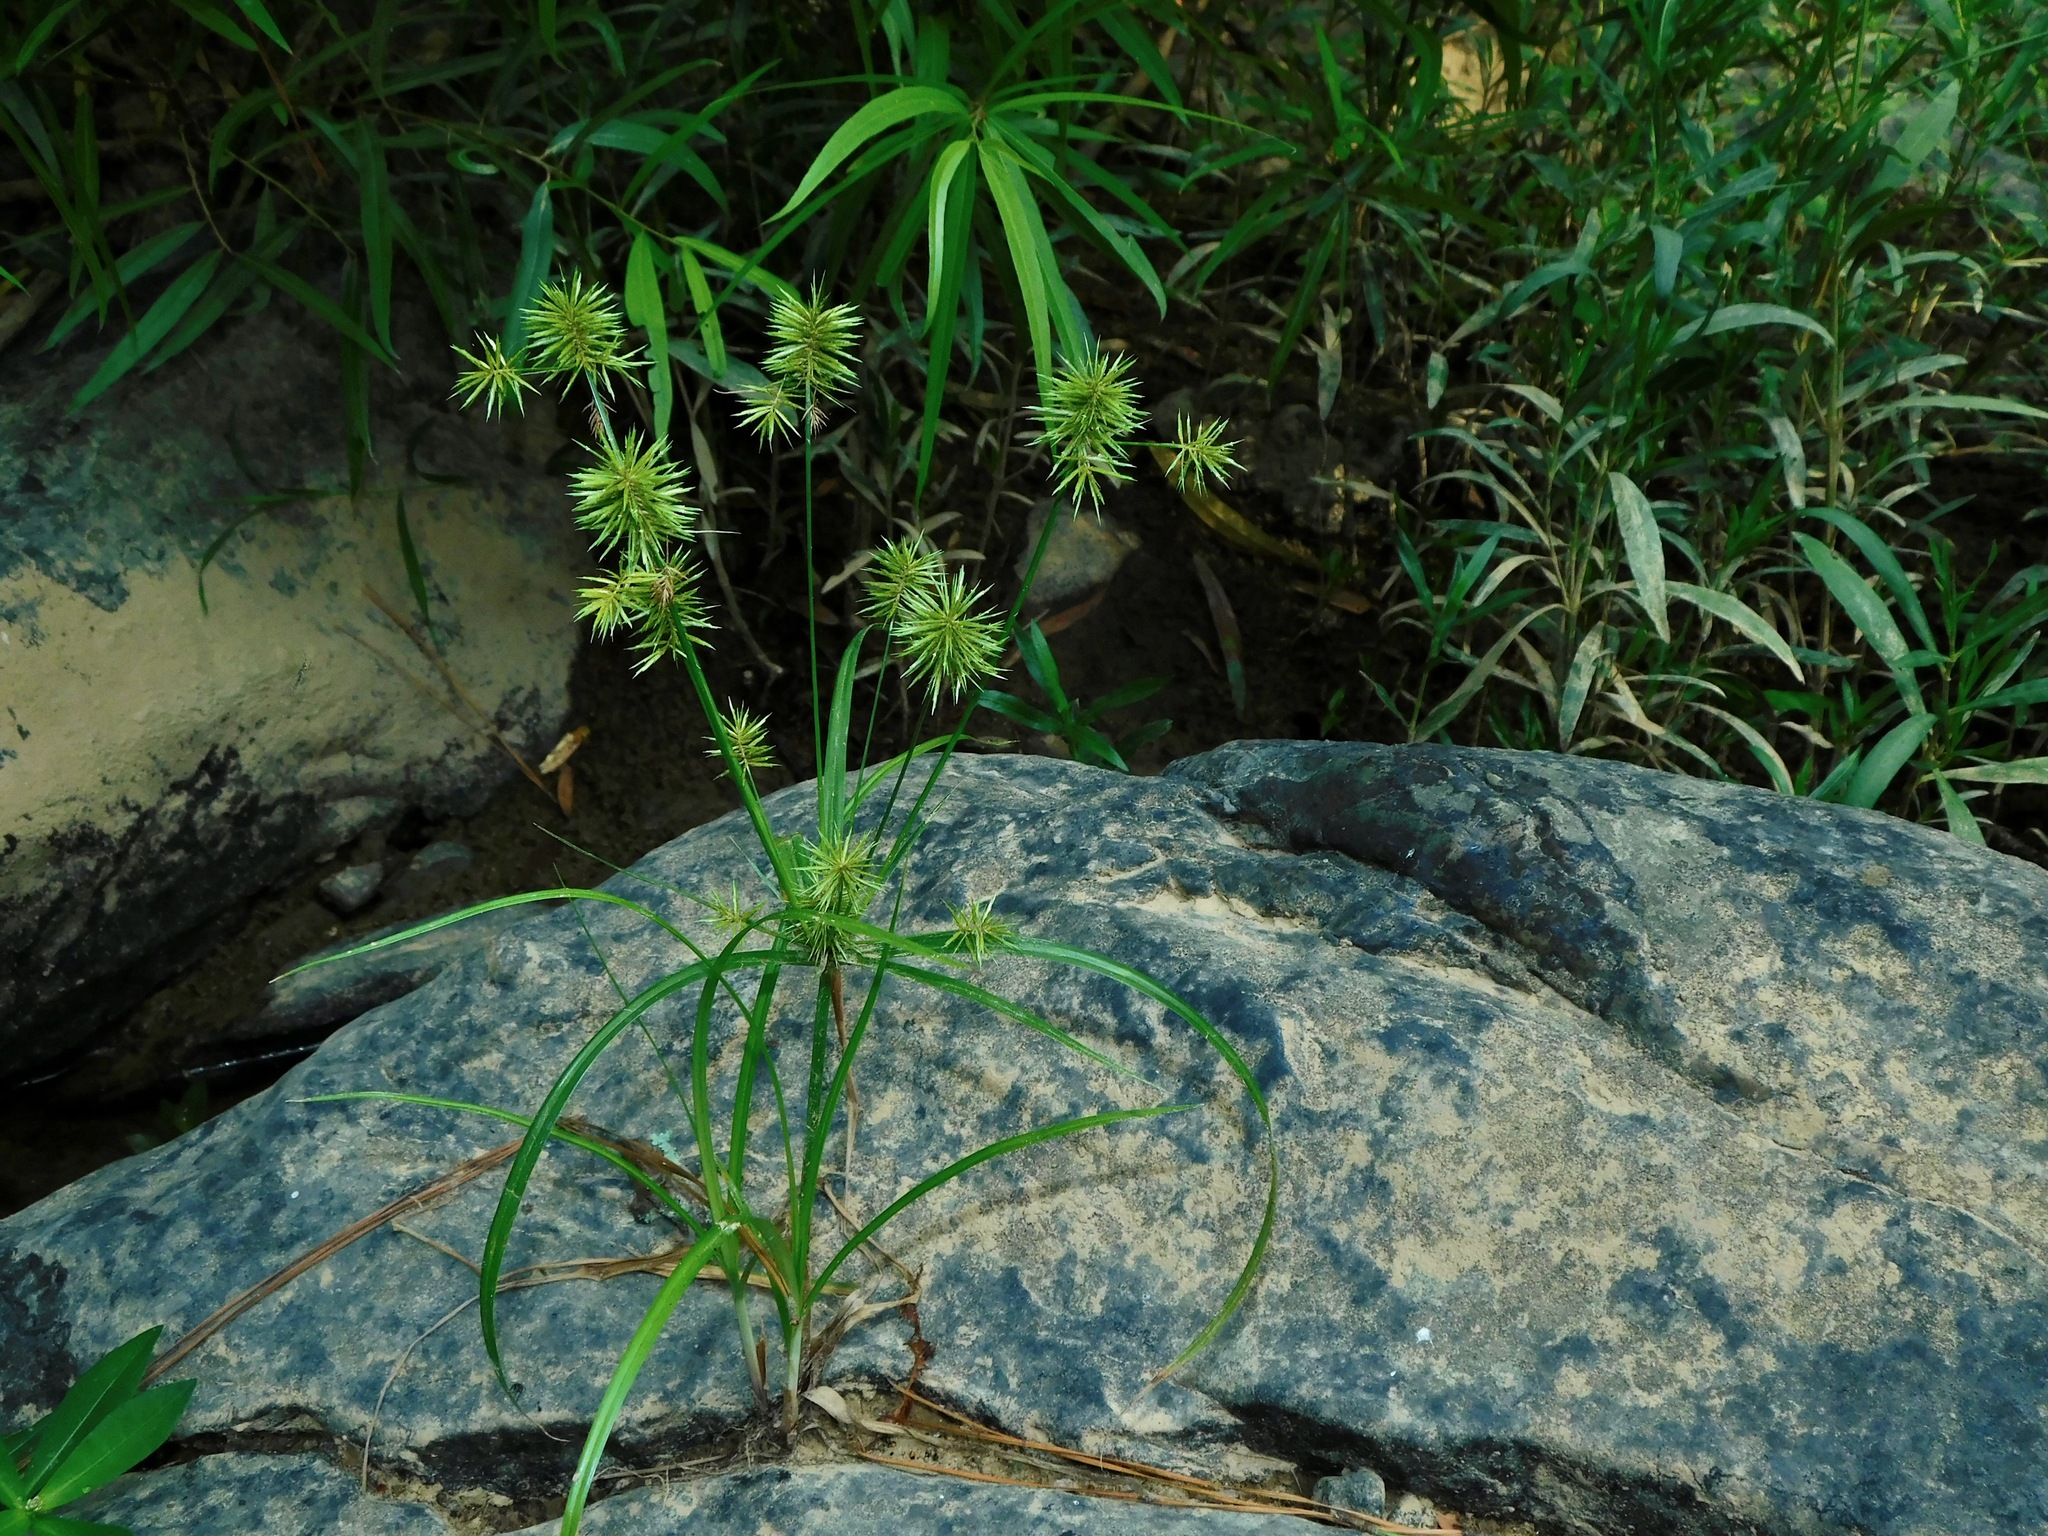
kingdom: Plantae
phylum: Tracheophyta
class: Liliopsida
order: Poales
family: Cyperaceae
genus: Cyperus
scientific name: Cyperus strigosus
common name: False nutsedge
